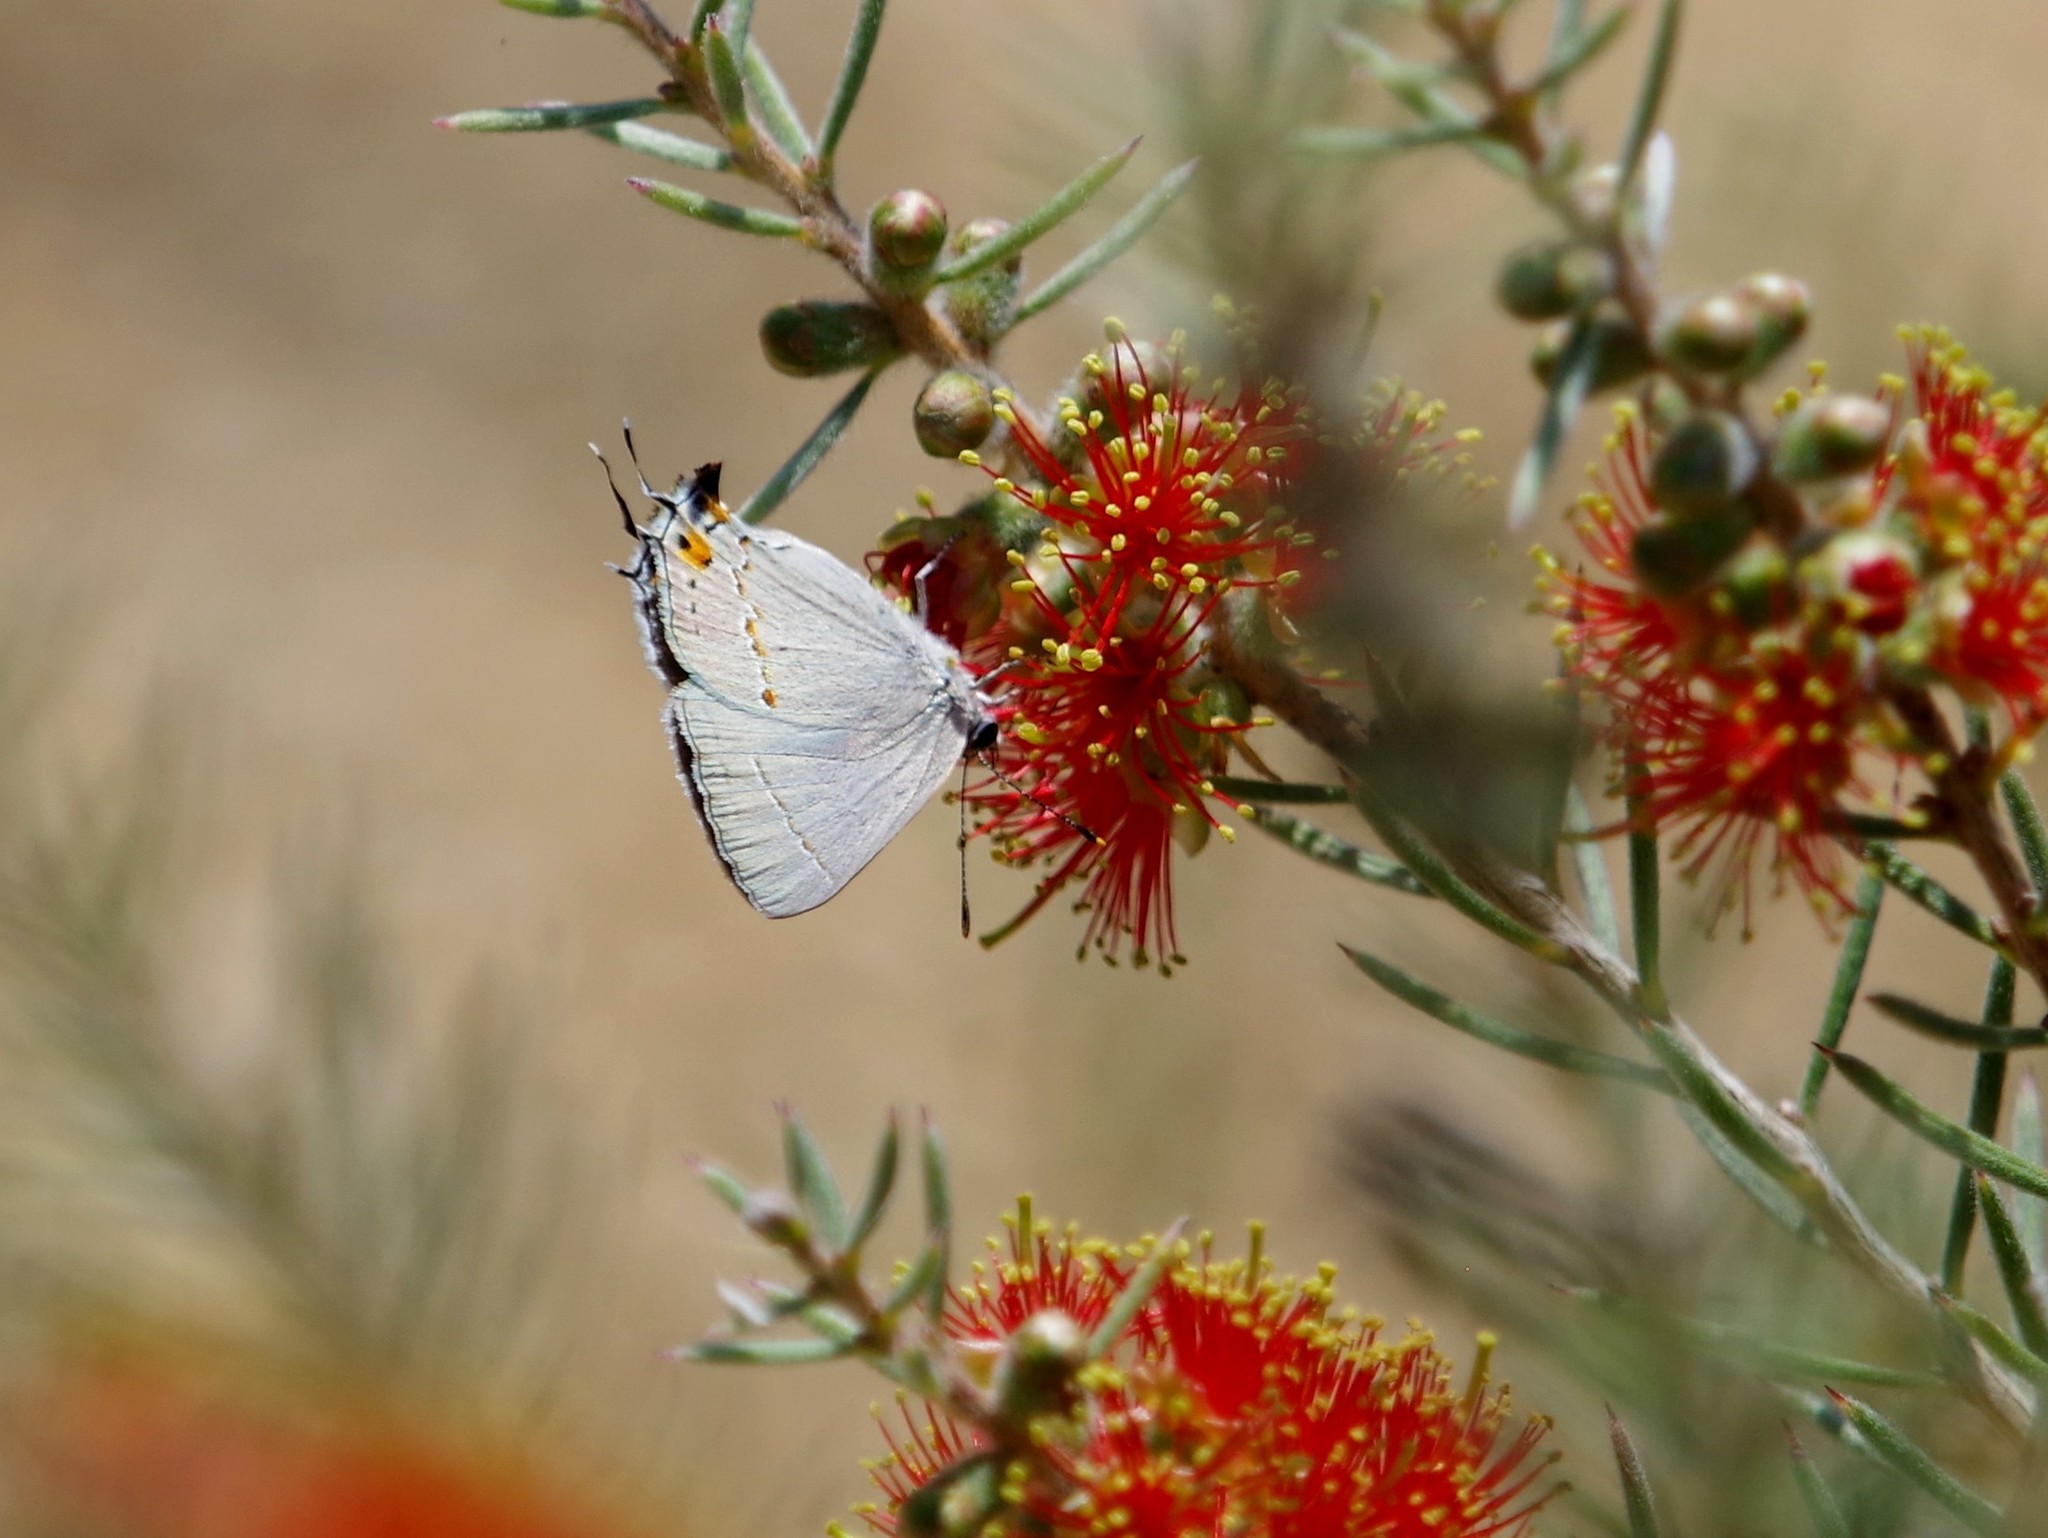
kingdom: Animalia
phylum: Arthropoda
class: Insecta
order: Lepidoptera
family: Lycaenidae
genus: Strymon
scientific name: Strymon melinus
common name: Gray hairstreak
